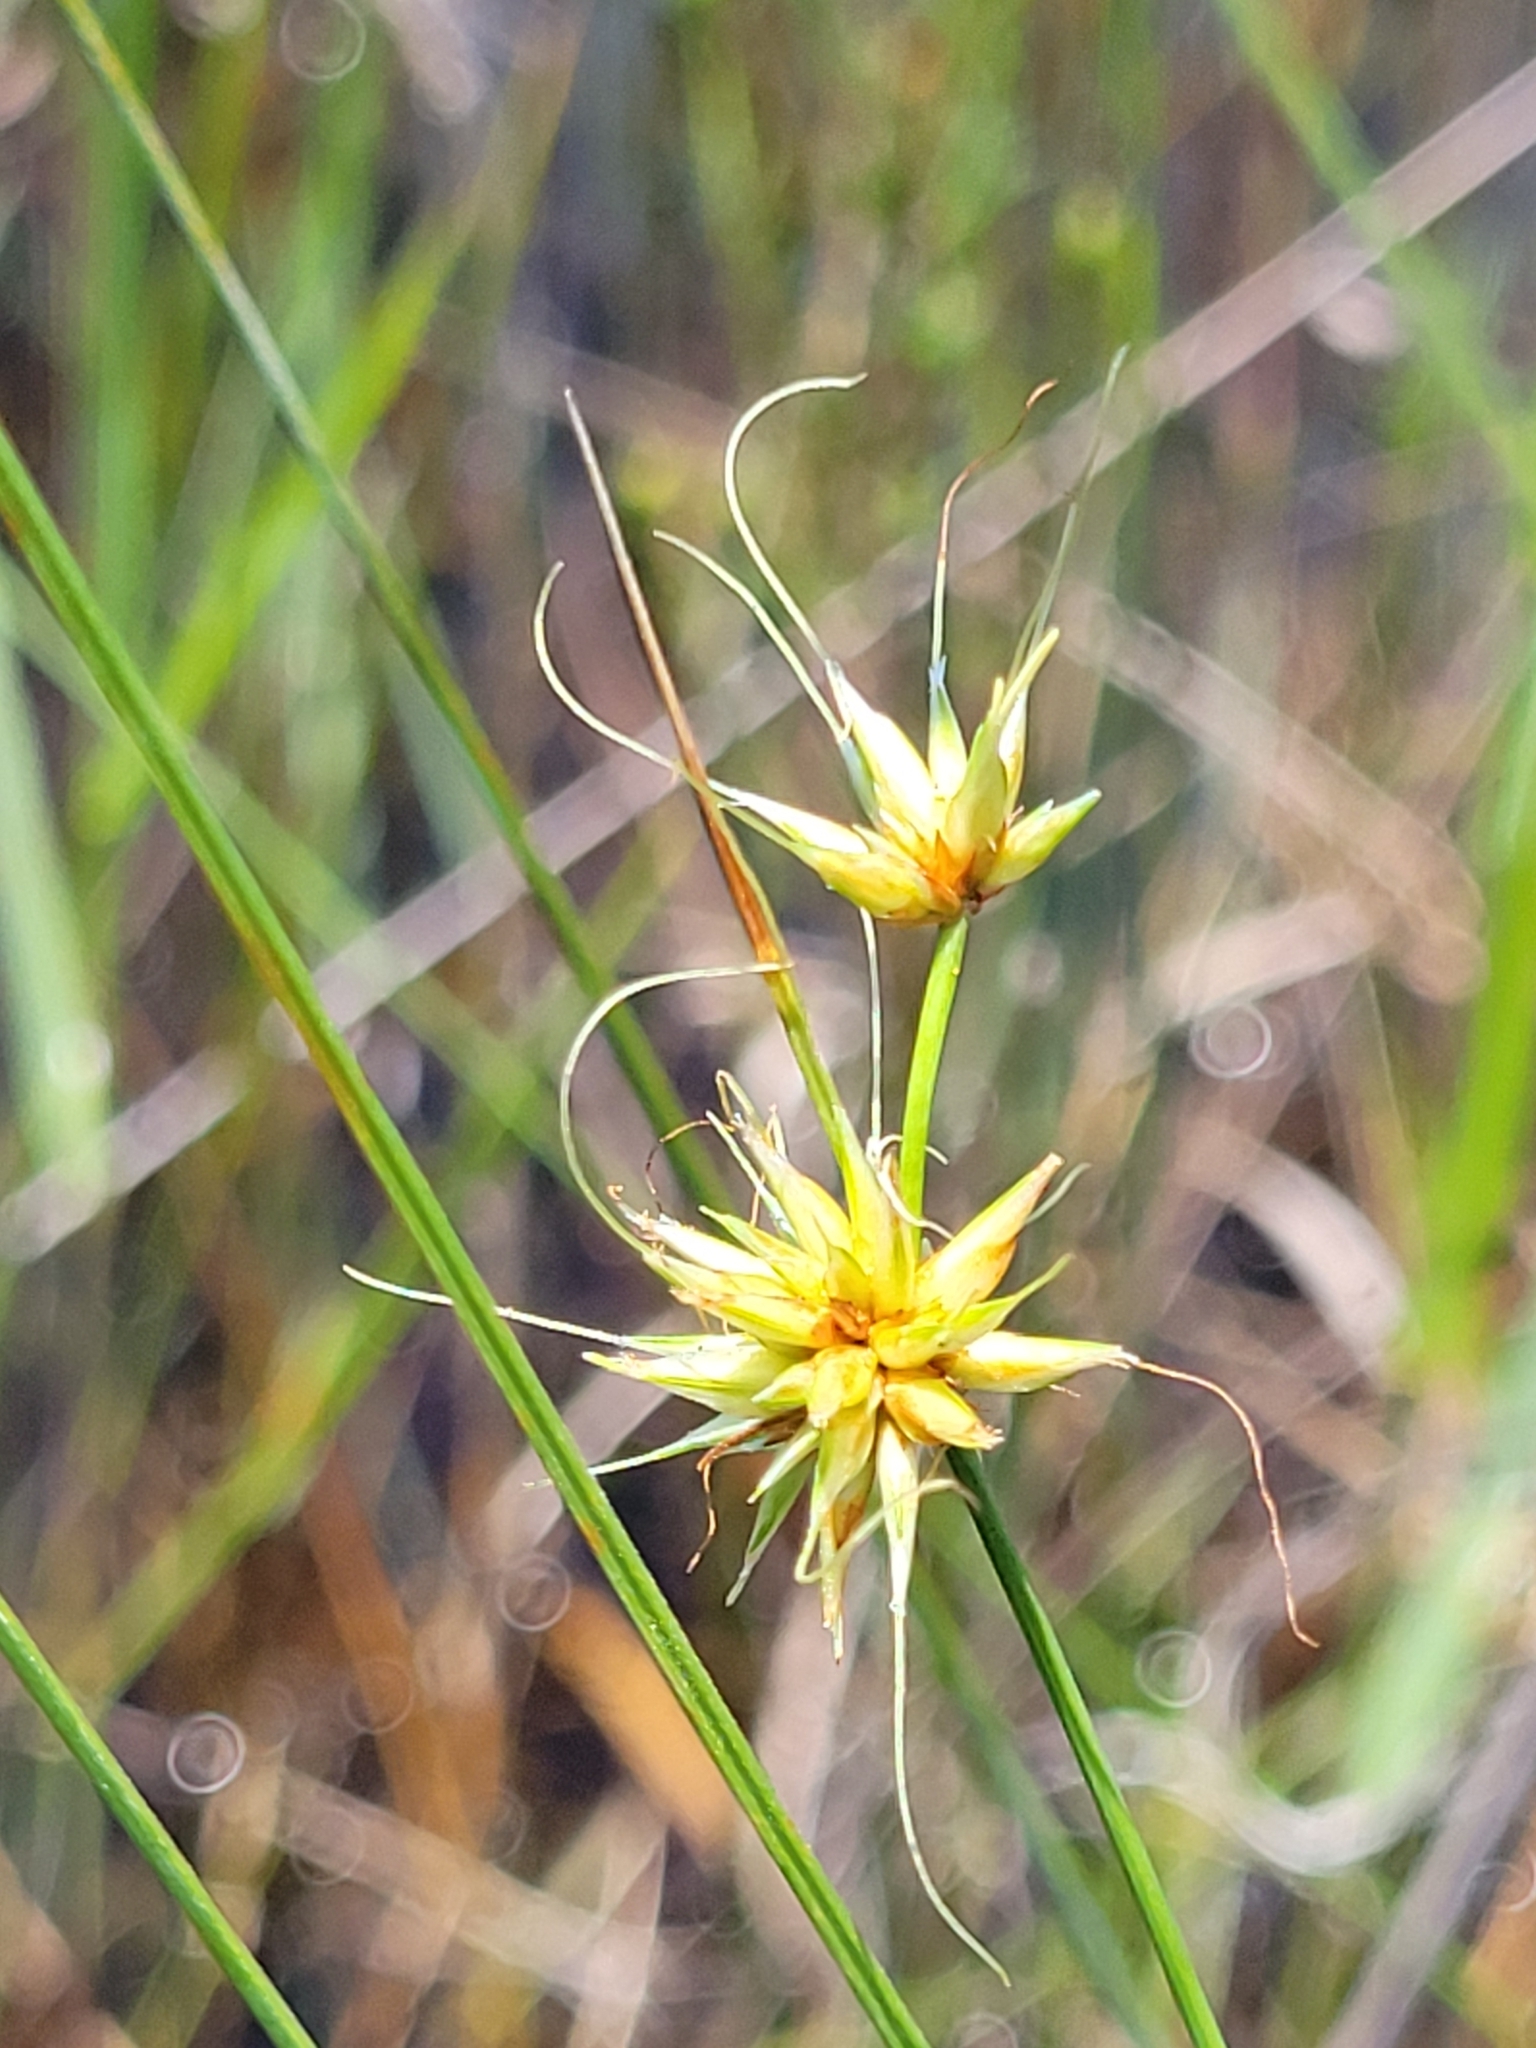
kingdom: Plantae
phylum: Tracheophyta
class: Liliopsida
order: Poales
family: Cyperaceae
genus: Rhynchospora
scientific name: Rhynchospora tracyi
